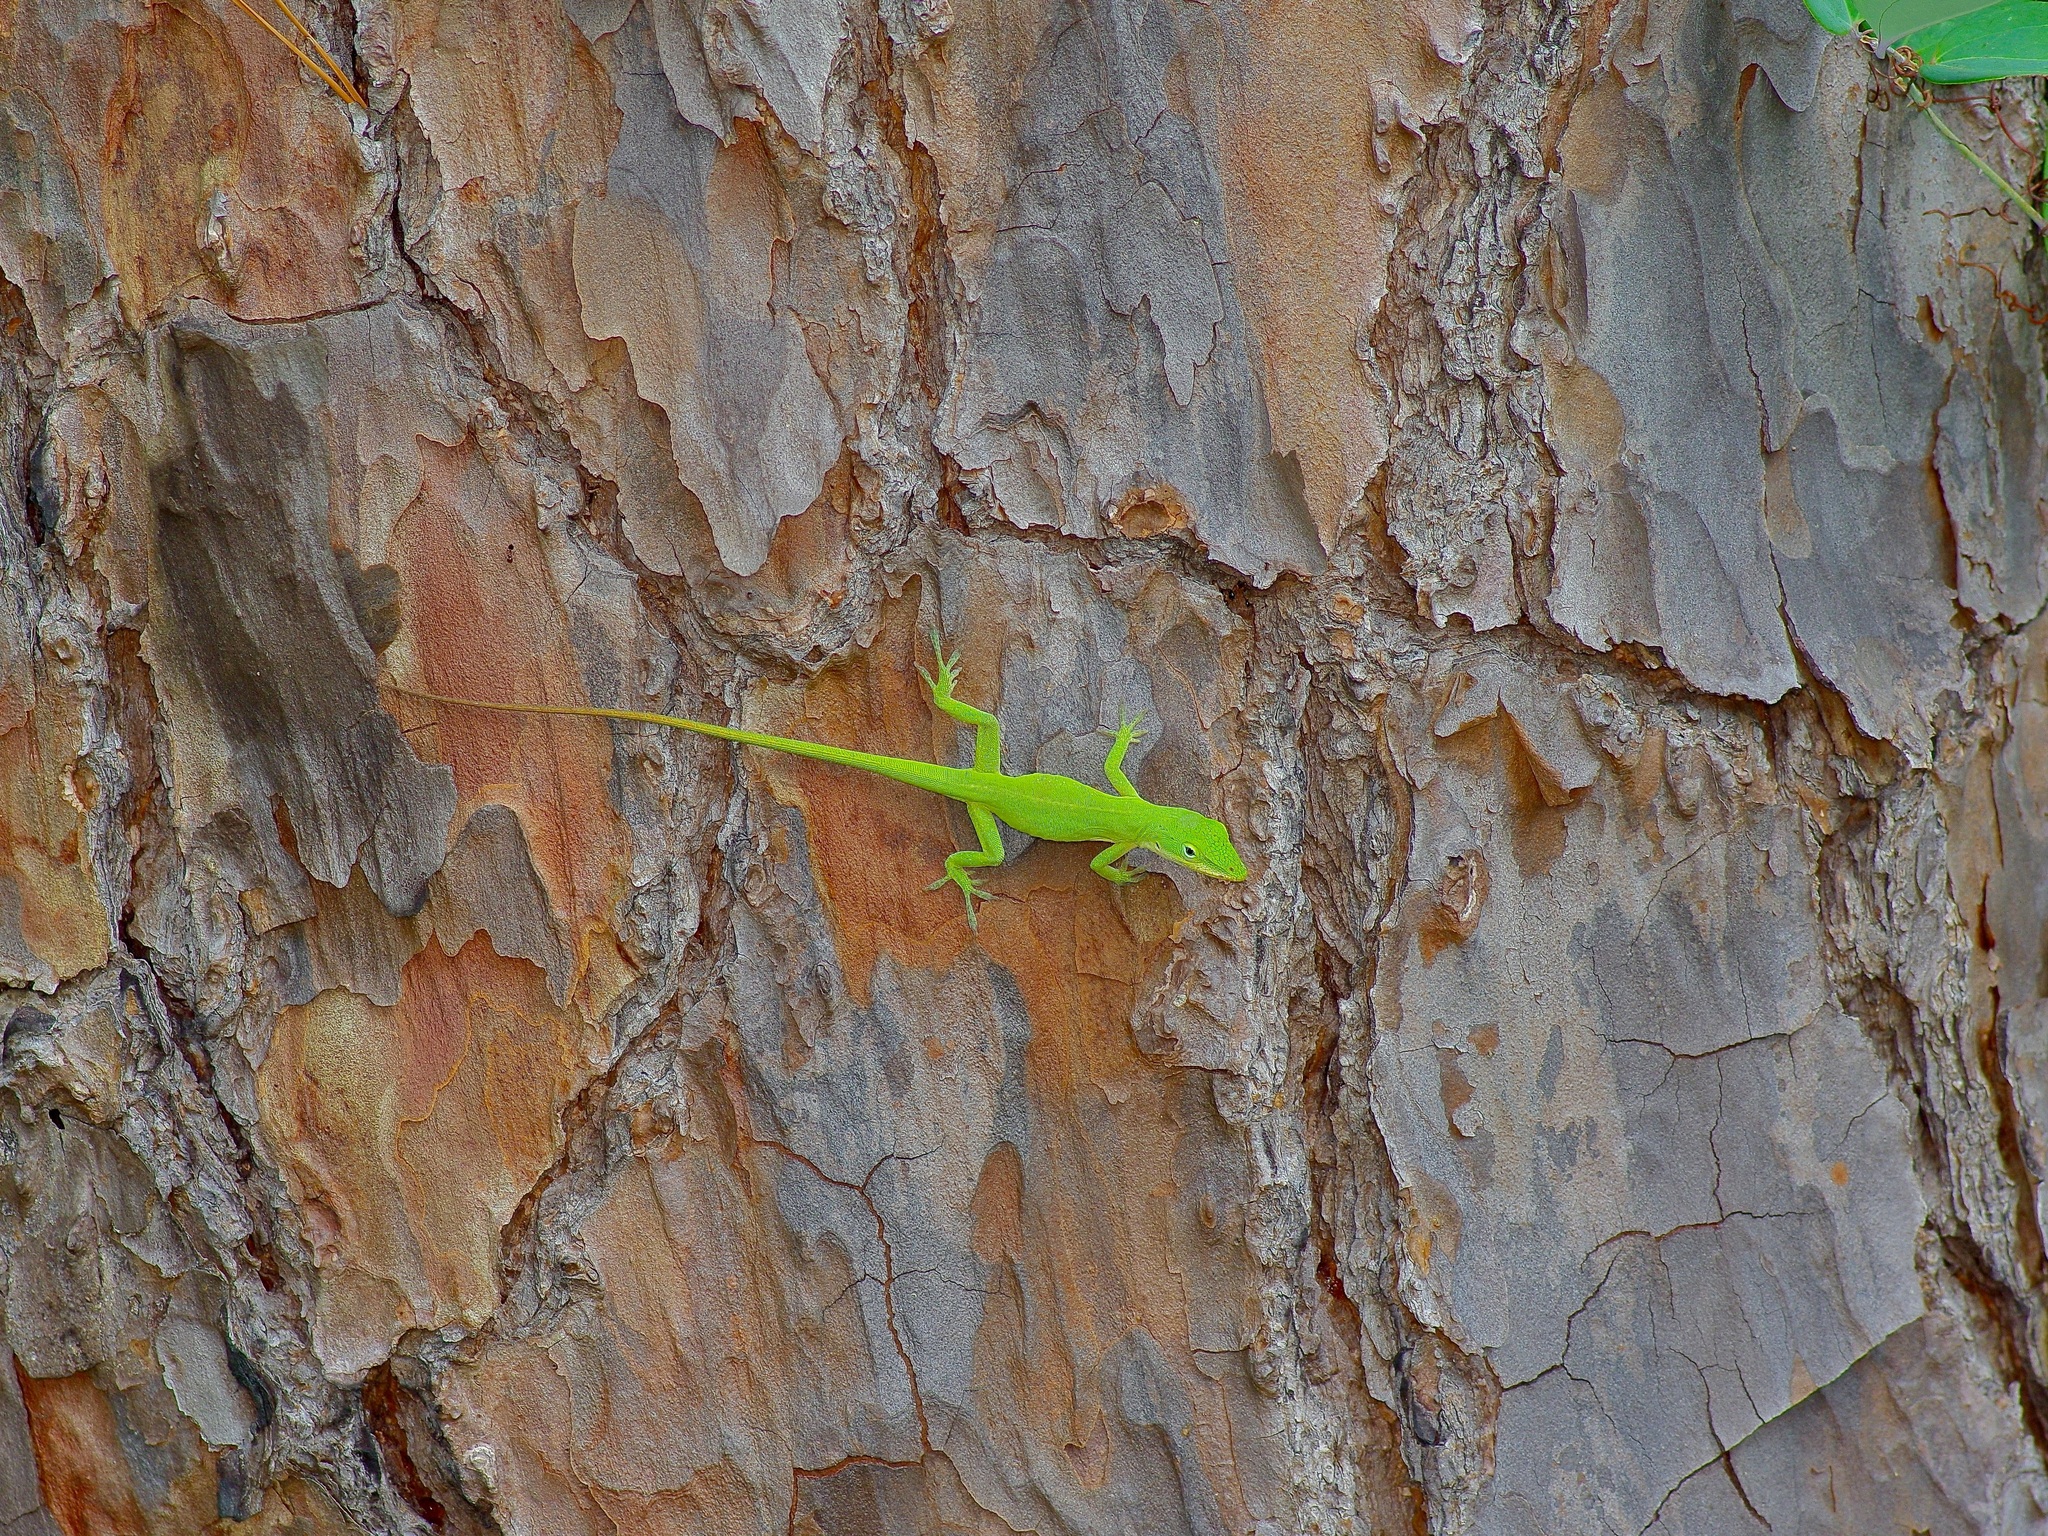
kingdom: Animalia
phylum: Chordata
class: Squamata
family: Dactyloidae
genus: Anolis
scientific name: Anolis carolinensis
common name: Green anole
